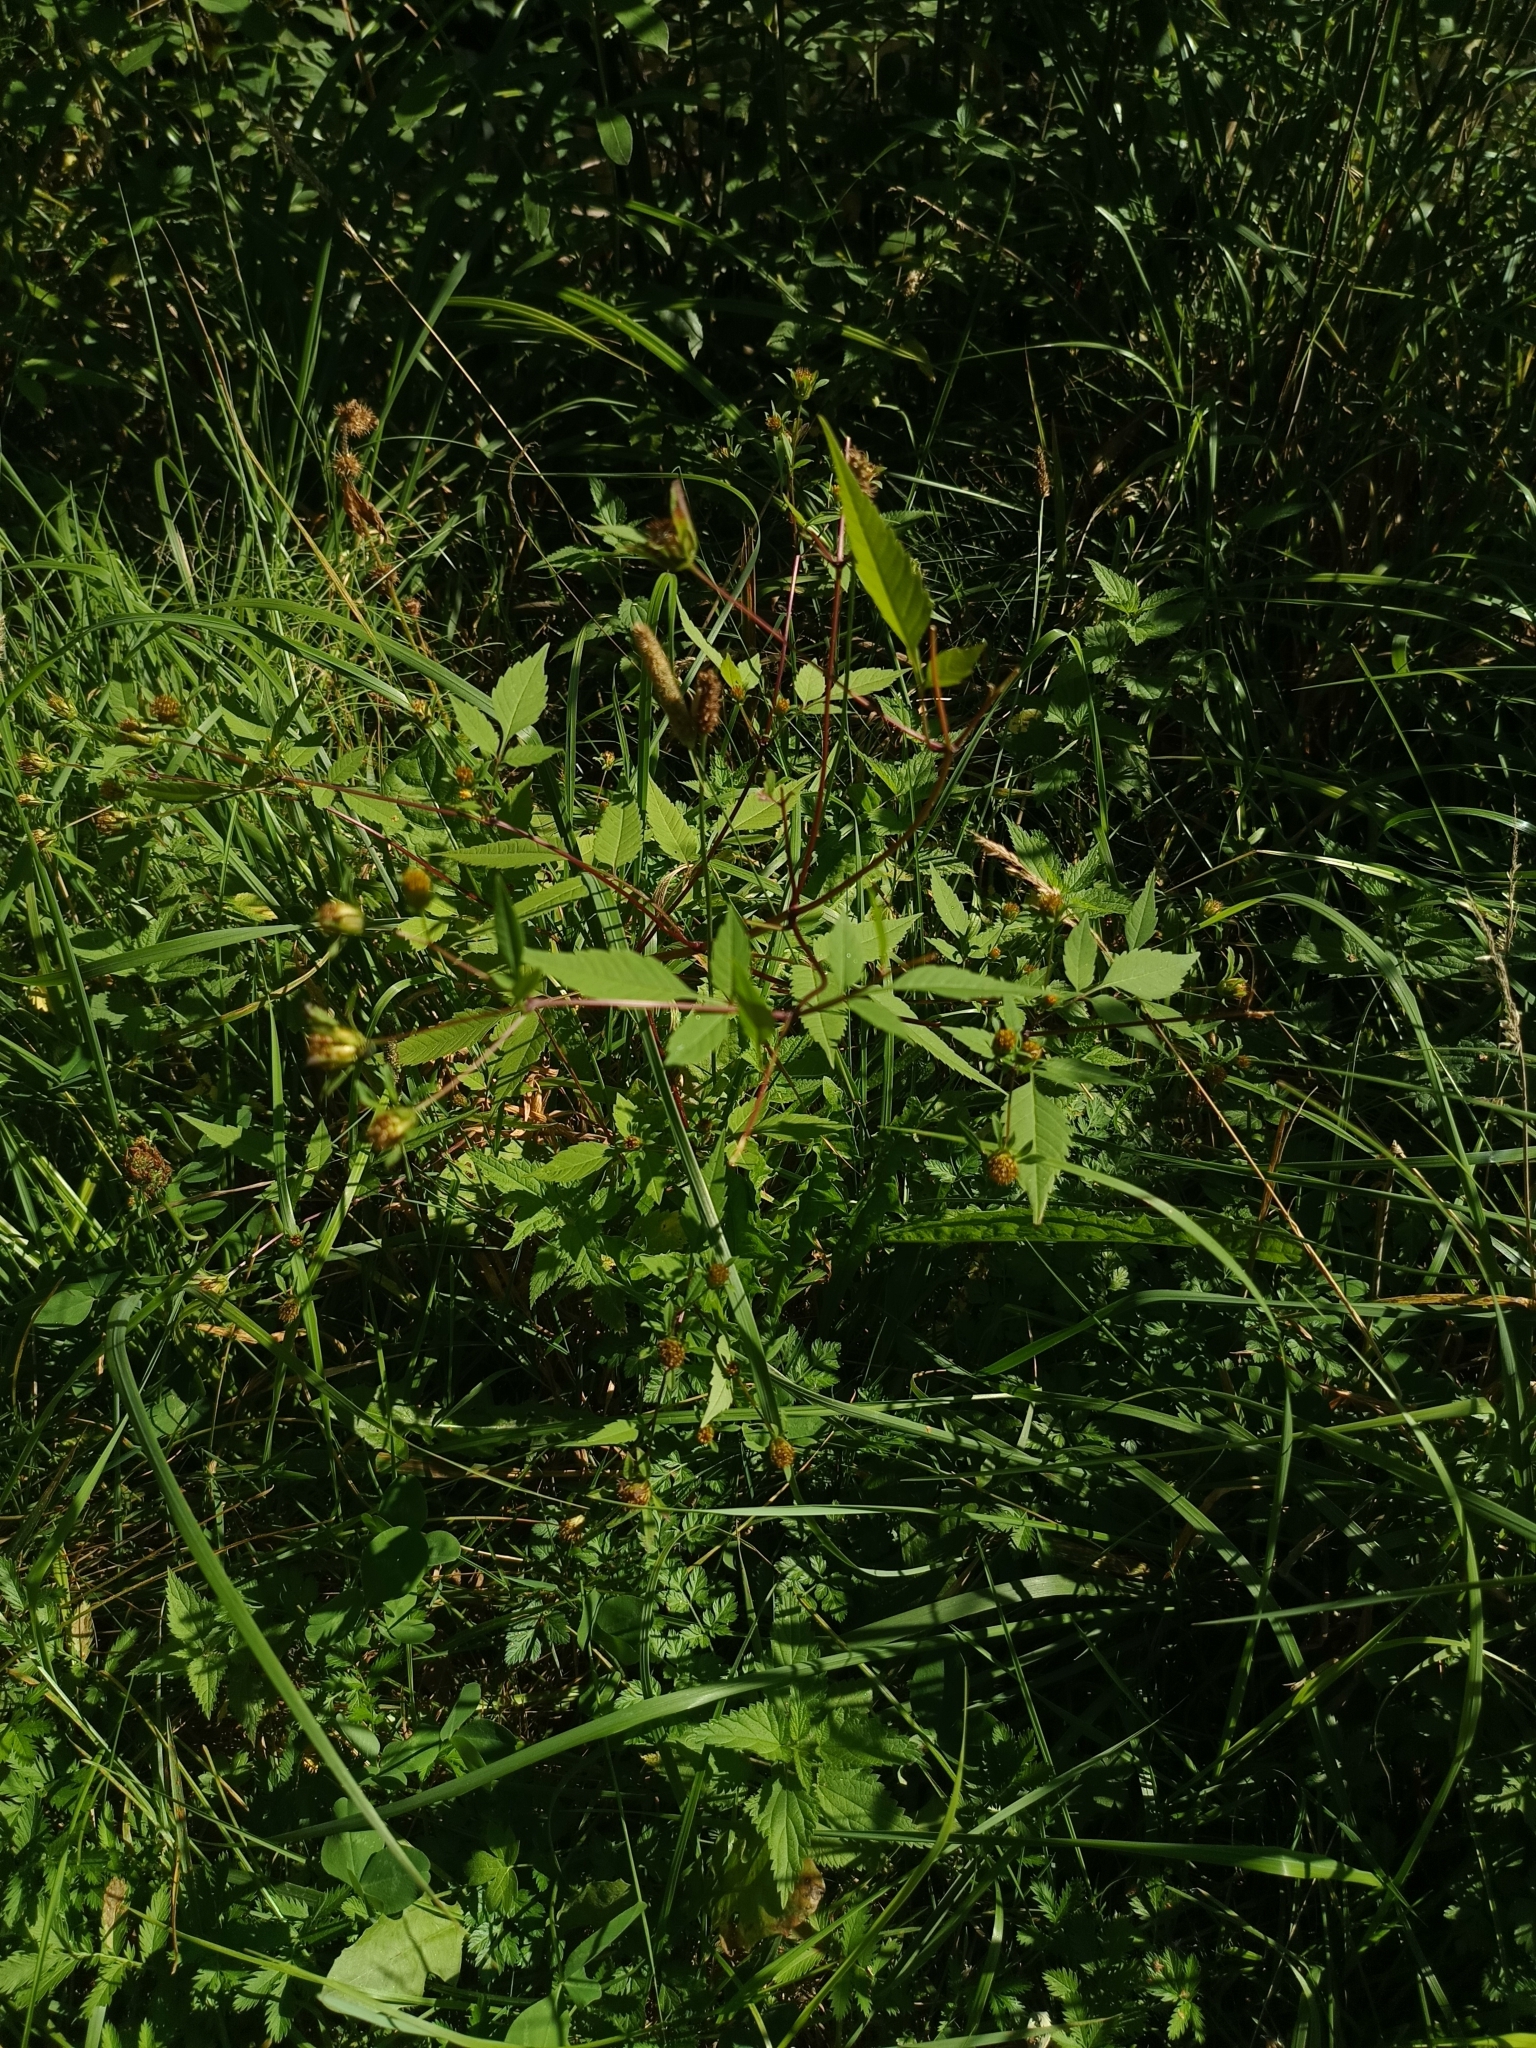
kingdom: Plantae
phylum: Tracheophyta
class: Magnoliopsida
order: Asterales
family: Asteraceae
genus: Bidens
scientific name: Bidens frondosa
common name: Beggarticks
